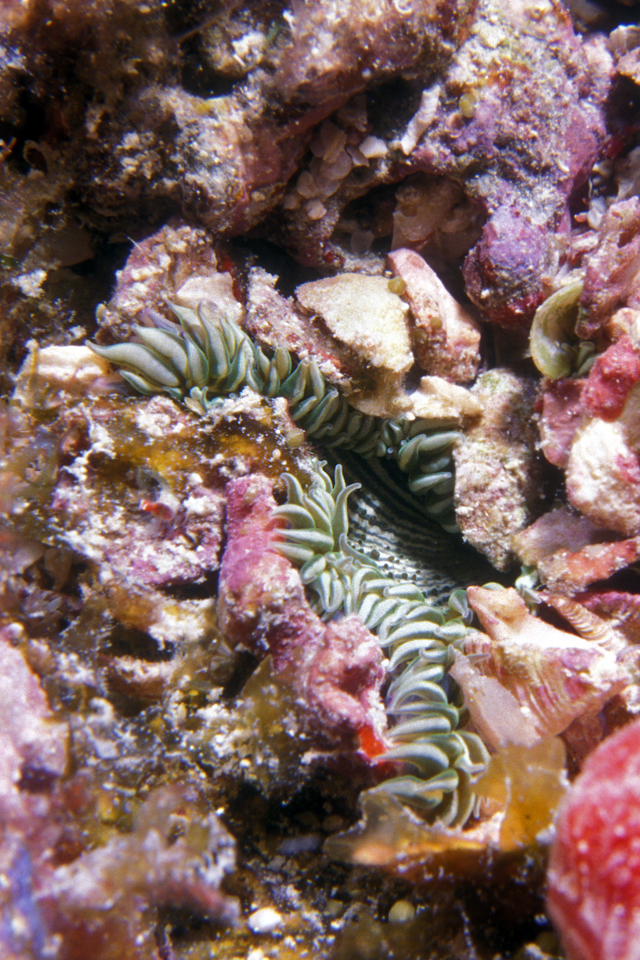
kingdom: Animalia
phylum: Cnidaria
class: Anthozoa
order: Actiniaria
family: Phymanthidae
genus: Phymanthus
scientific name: Phymanthus crucifer
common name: Red beaded anemone
